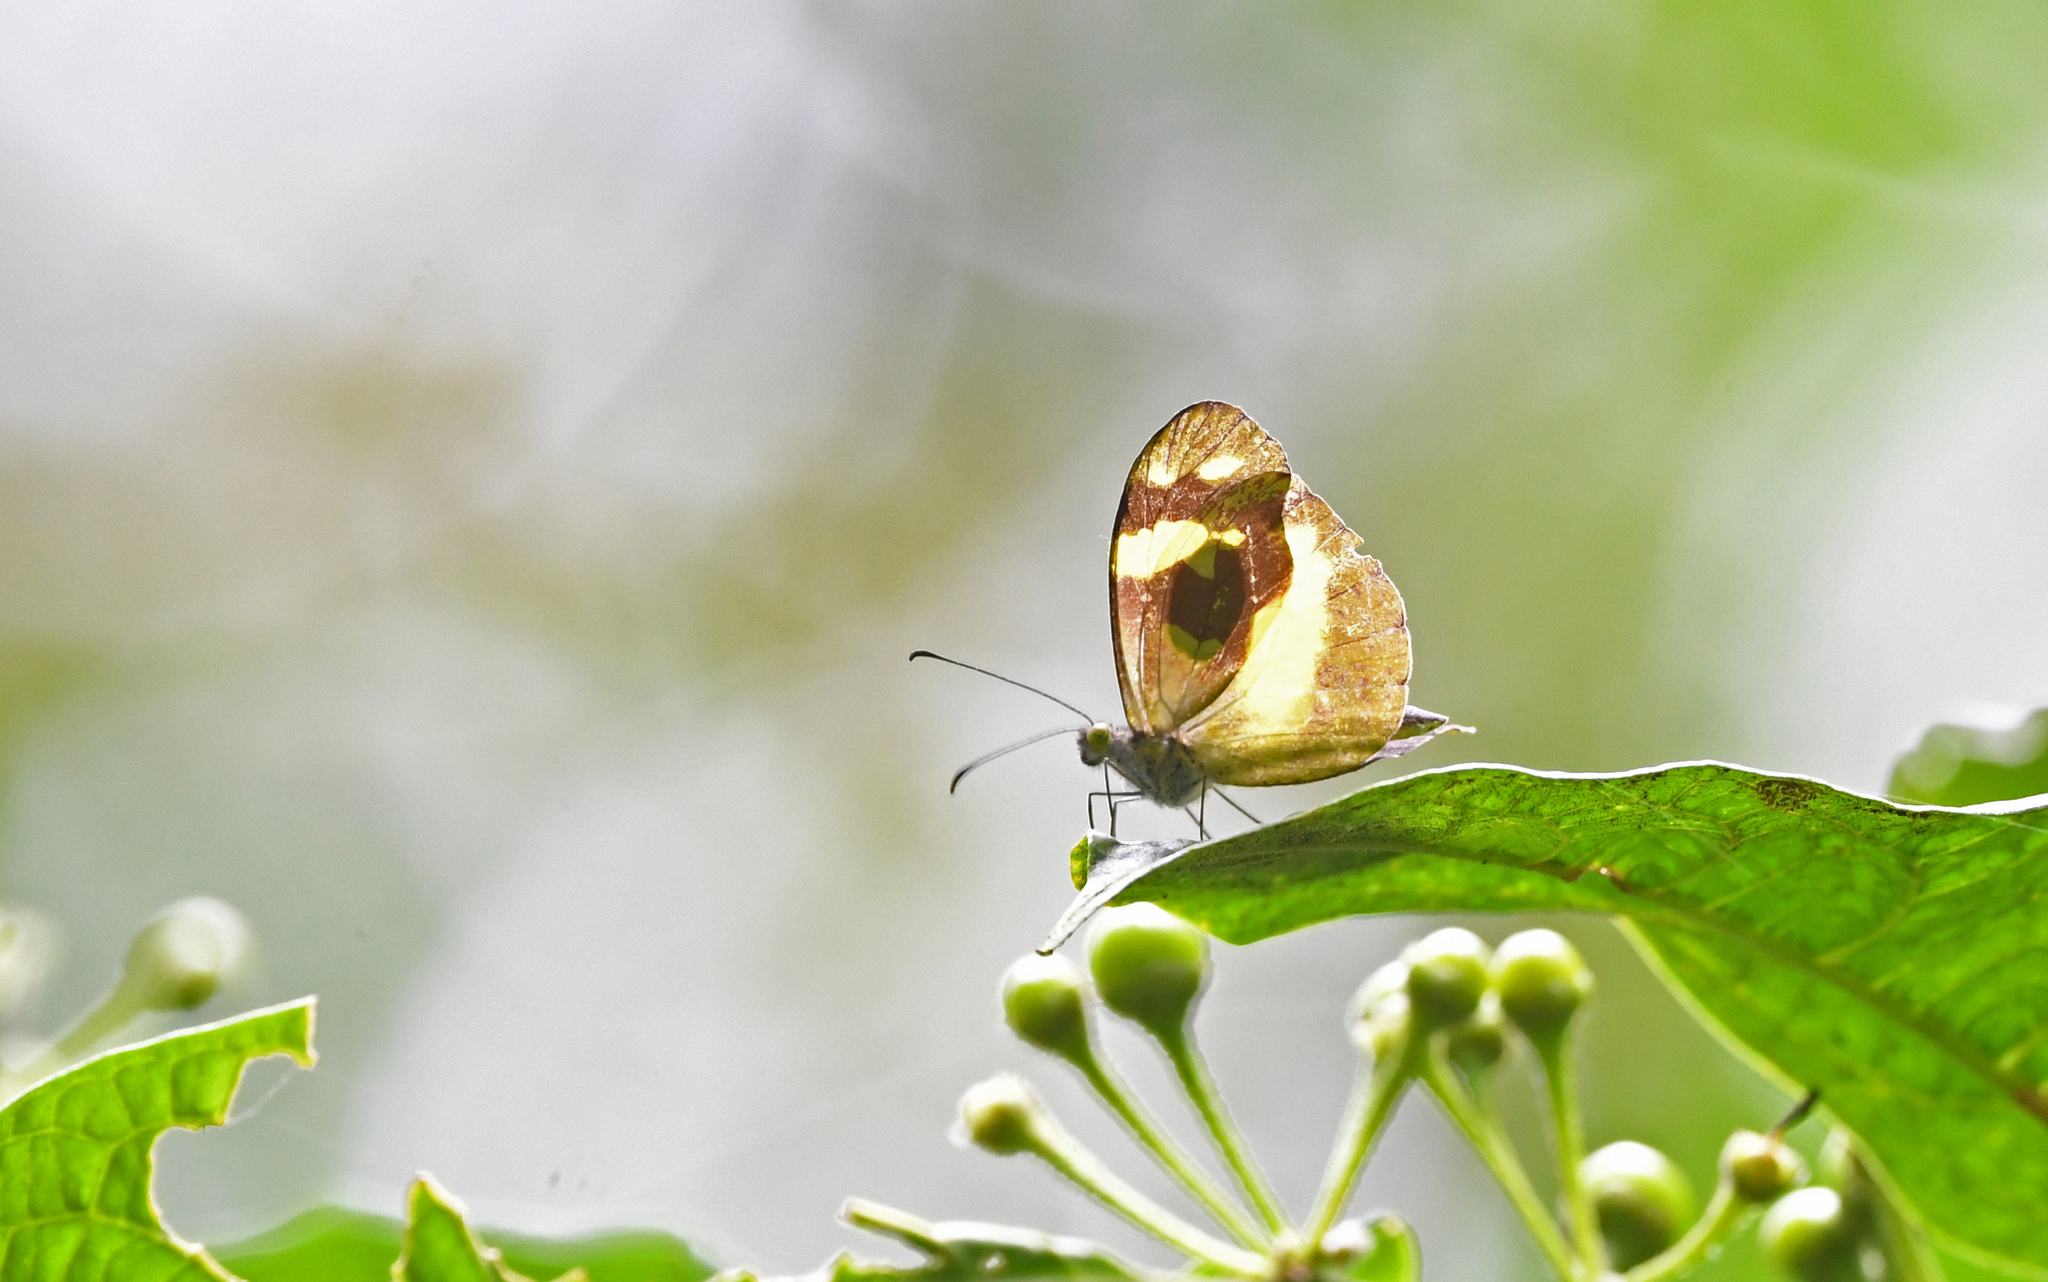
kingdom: Animalia
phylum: Arthropoda
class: Insecta
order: Lepidoptera
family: Pieridae
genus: Dismorphia
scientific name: Dismorphia medora
